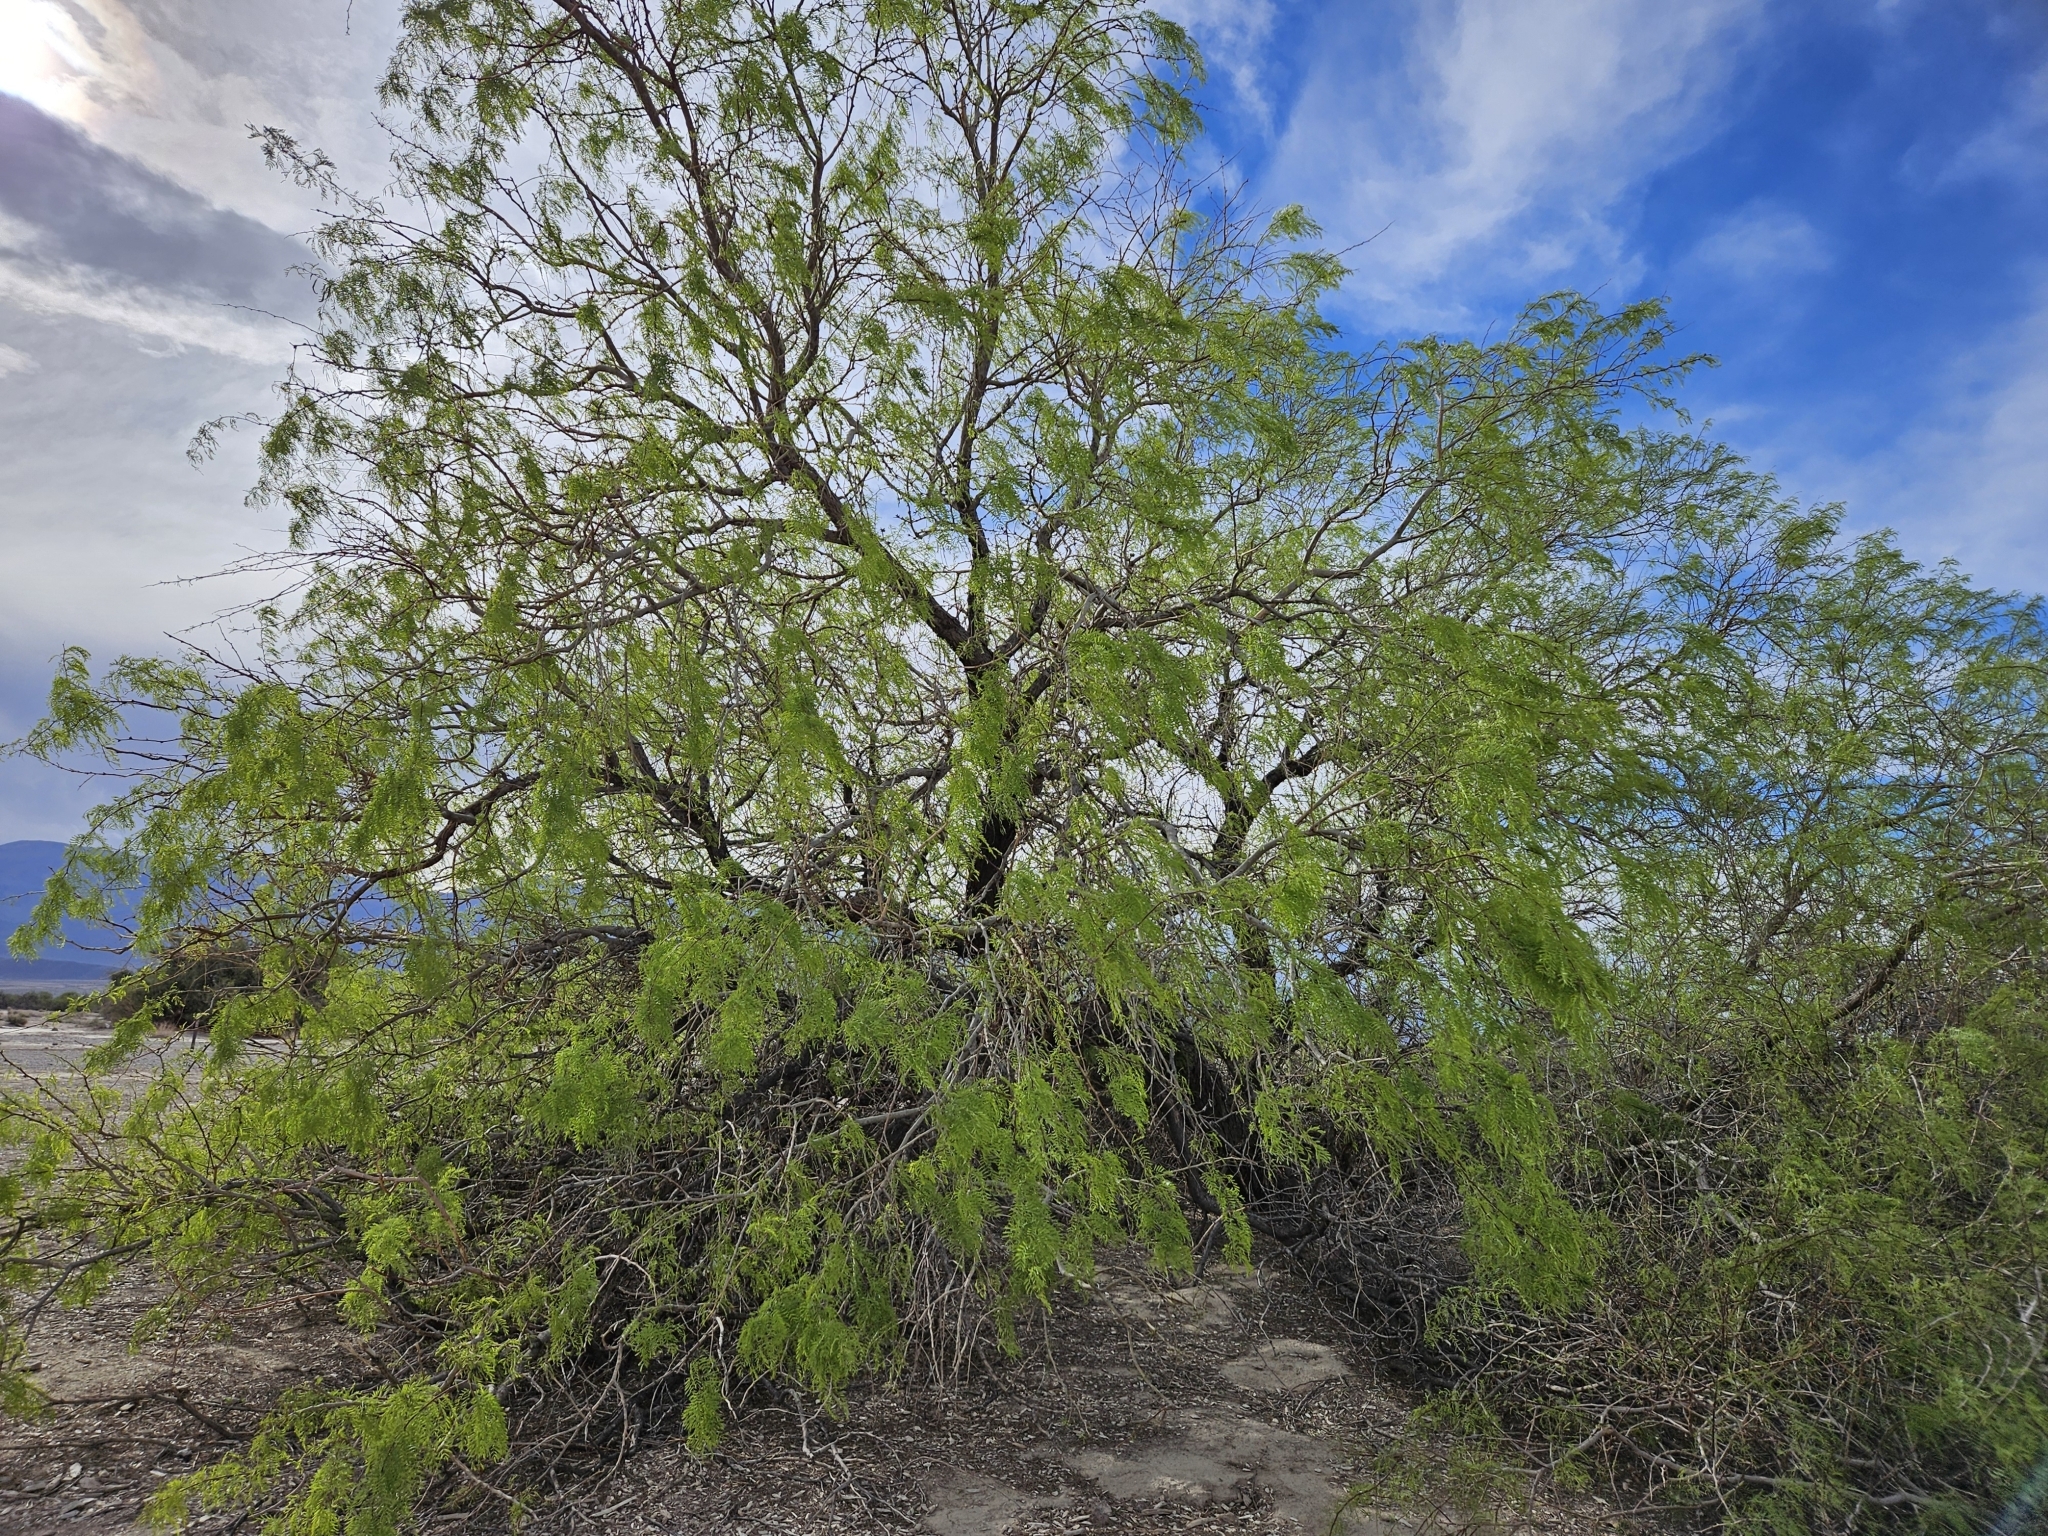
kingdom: Plantae
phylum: Tracheophyta
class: Magnoliopsida
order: Fabales
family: Fabaceae
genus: Prosopis
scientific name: Prosopis pubescens
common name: Screw-bean
